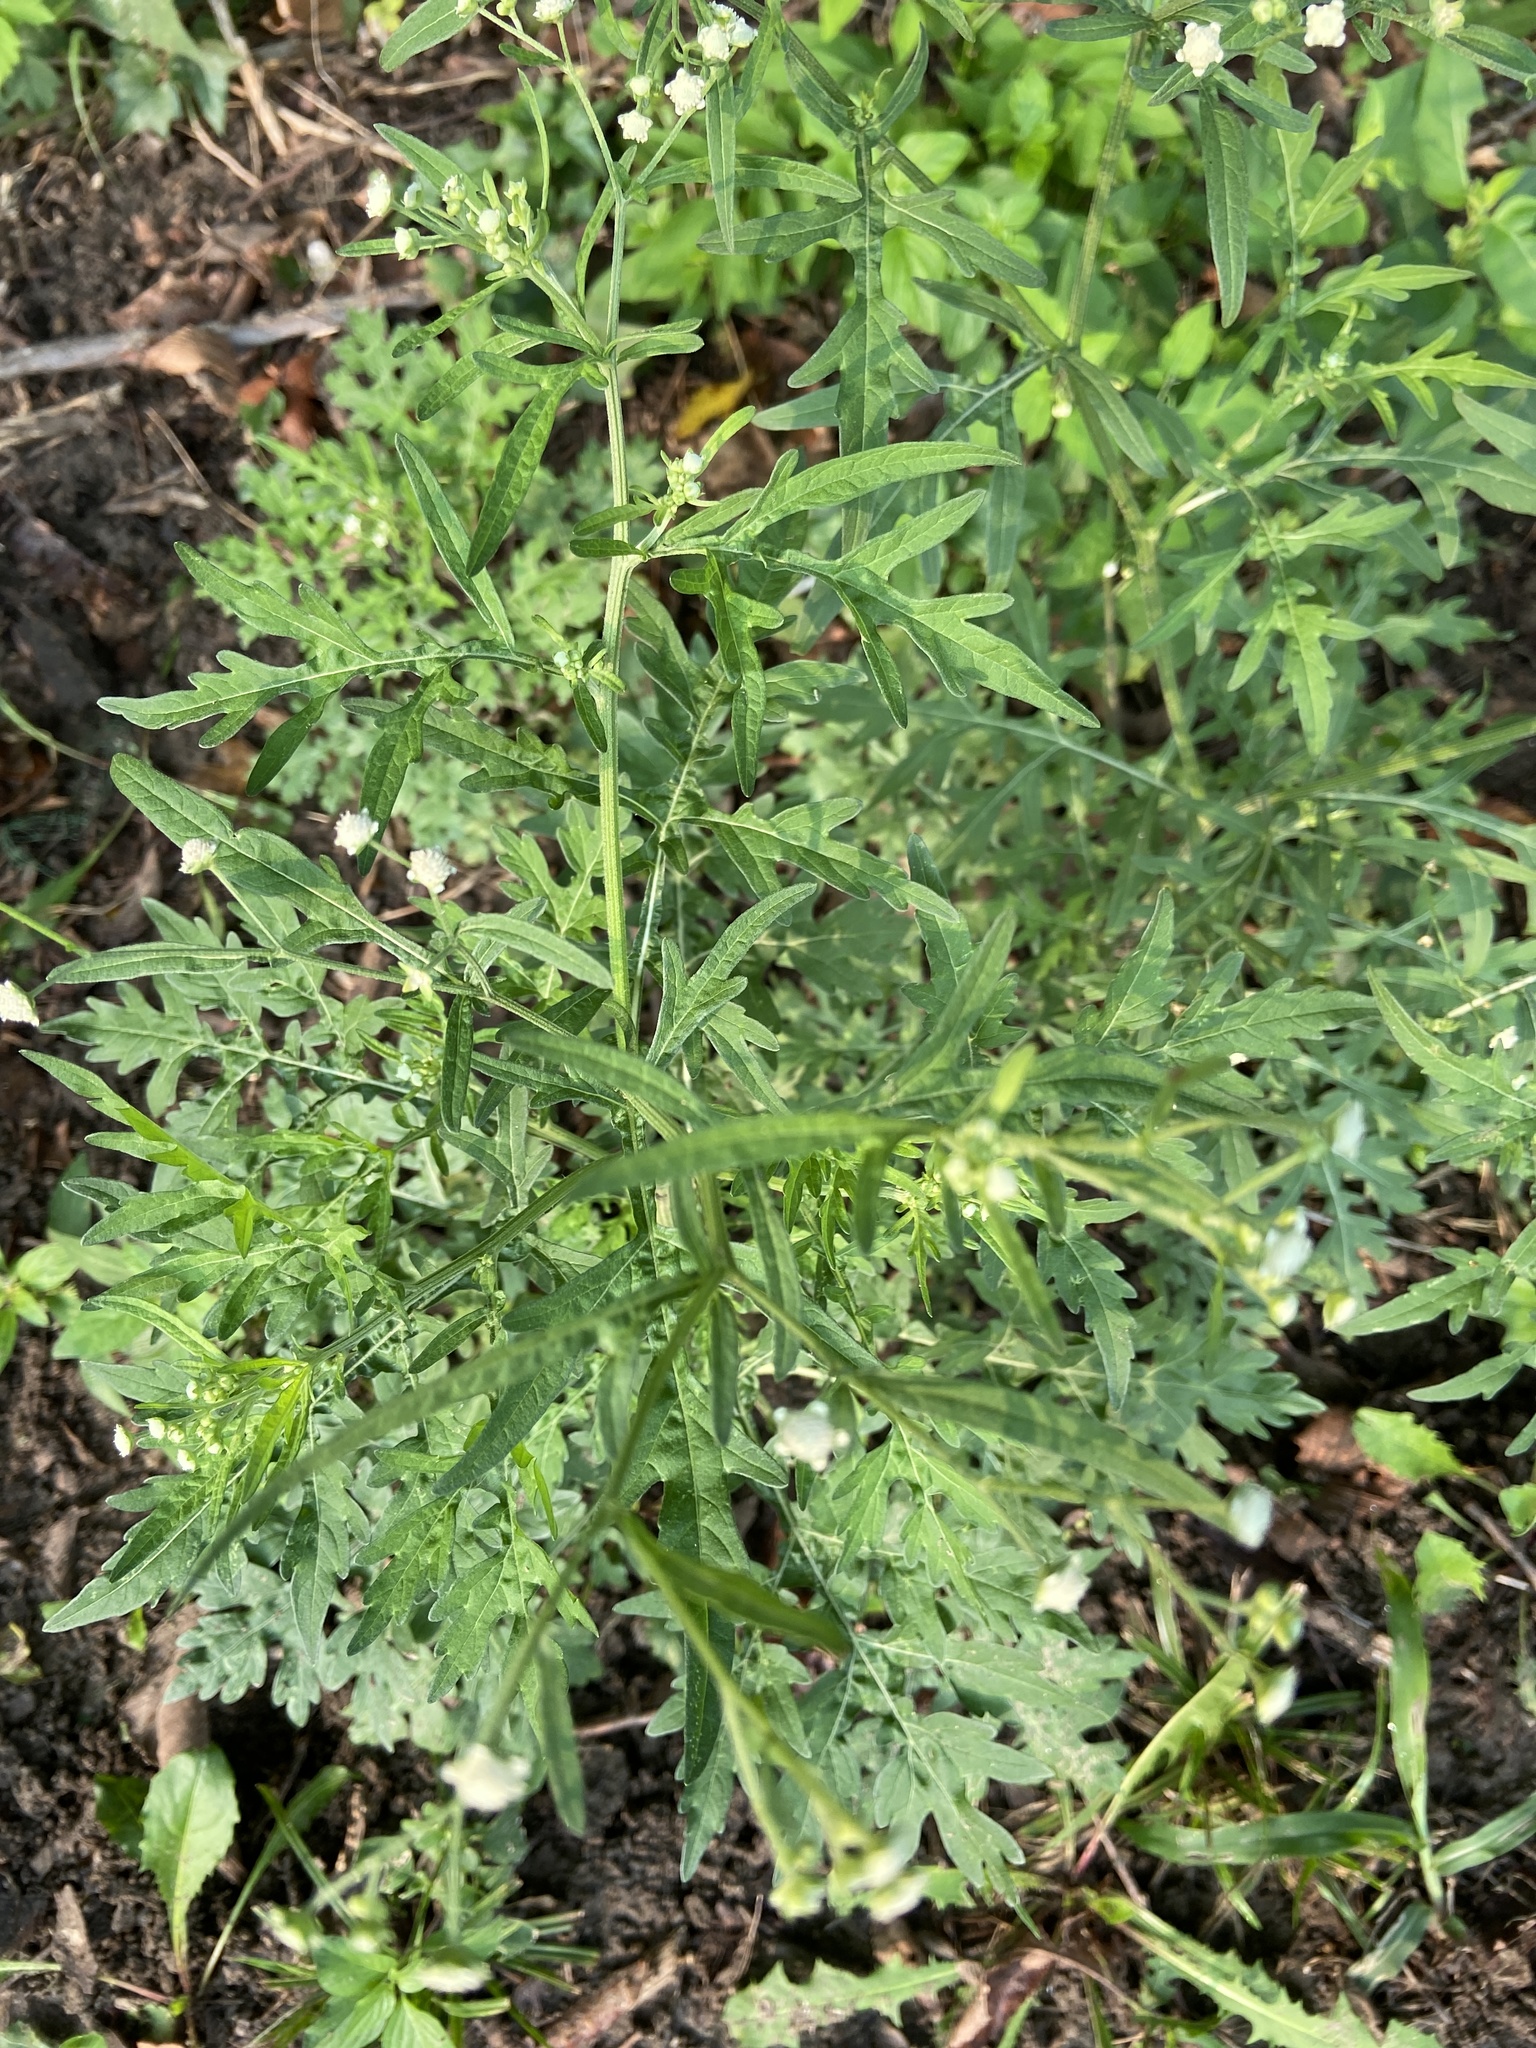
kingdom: Plantae
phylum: Tracheophyta
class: Magnoliopsida
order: Asterales
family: Asteraceae
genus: Parthenium
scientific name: Parthenium hysterophorus
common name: Santa maria feverfew
